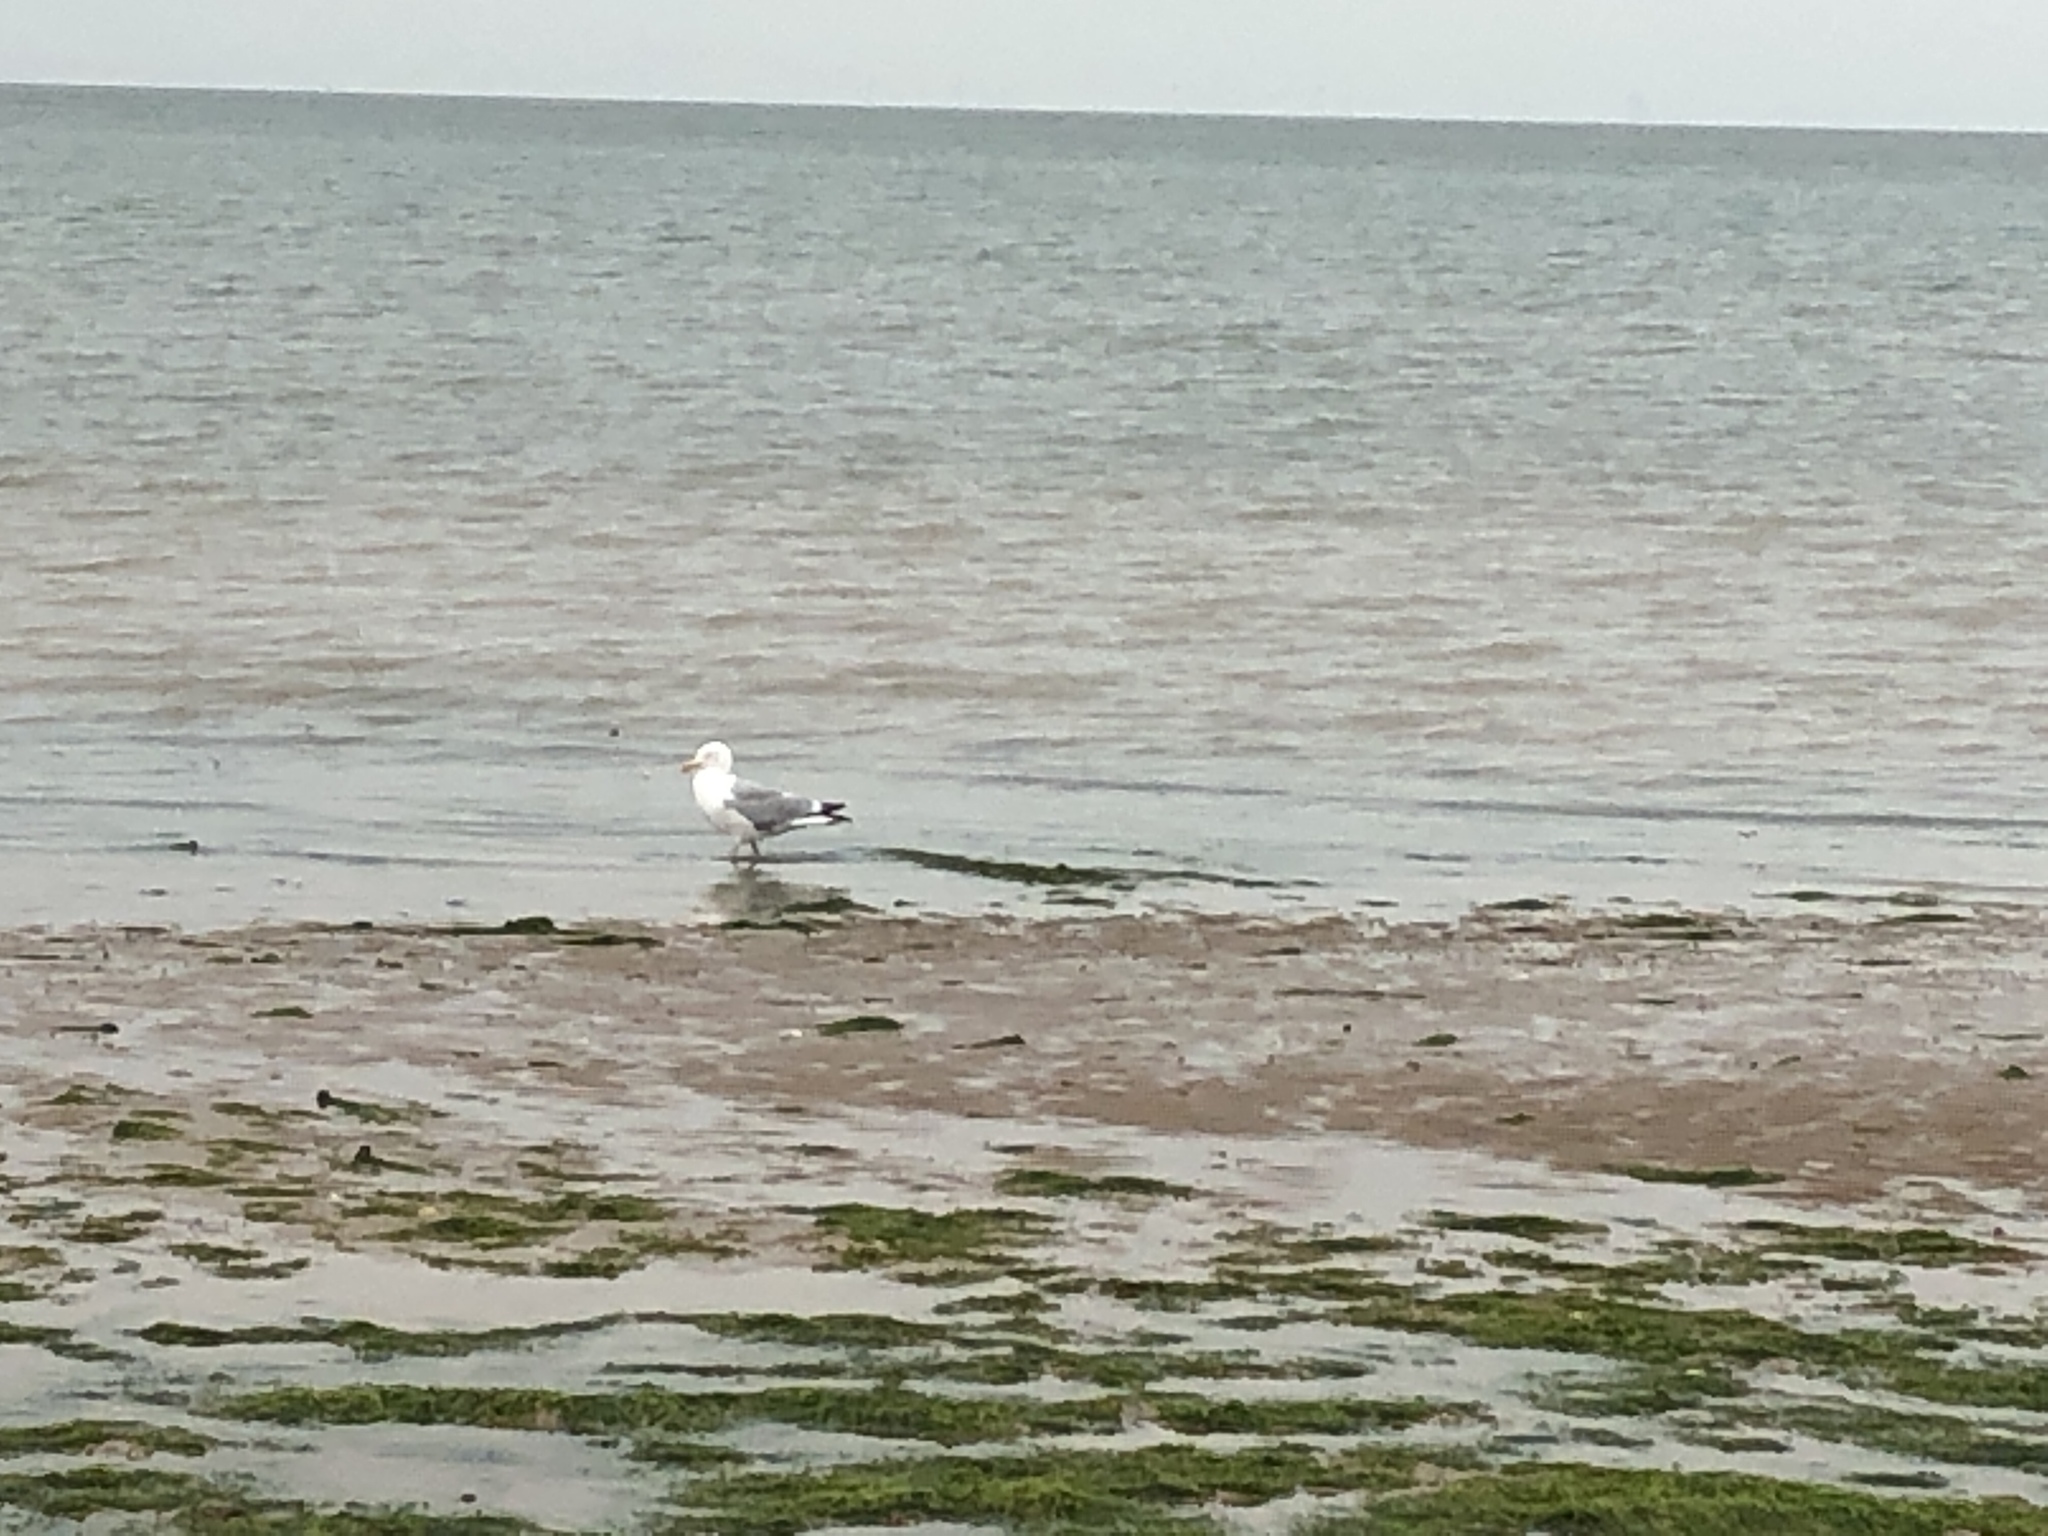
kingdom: Animalia
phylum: Chordata
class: Aves
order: Charadriiformes
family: Laridae
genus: Larus
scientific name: Larus argentatus
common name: Herring gull
